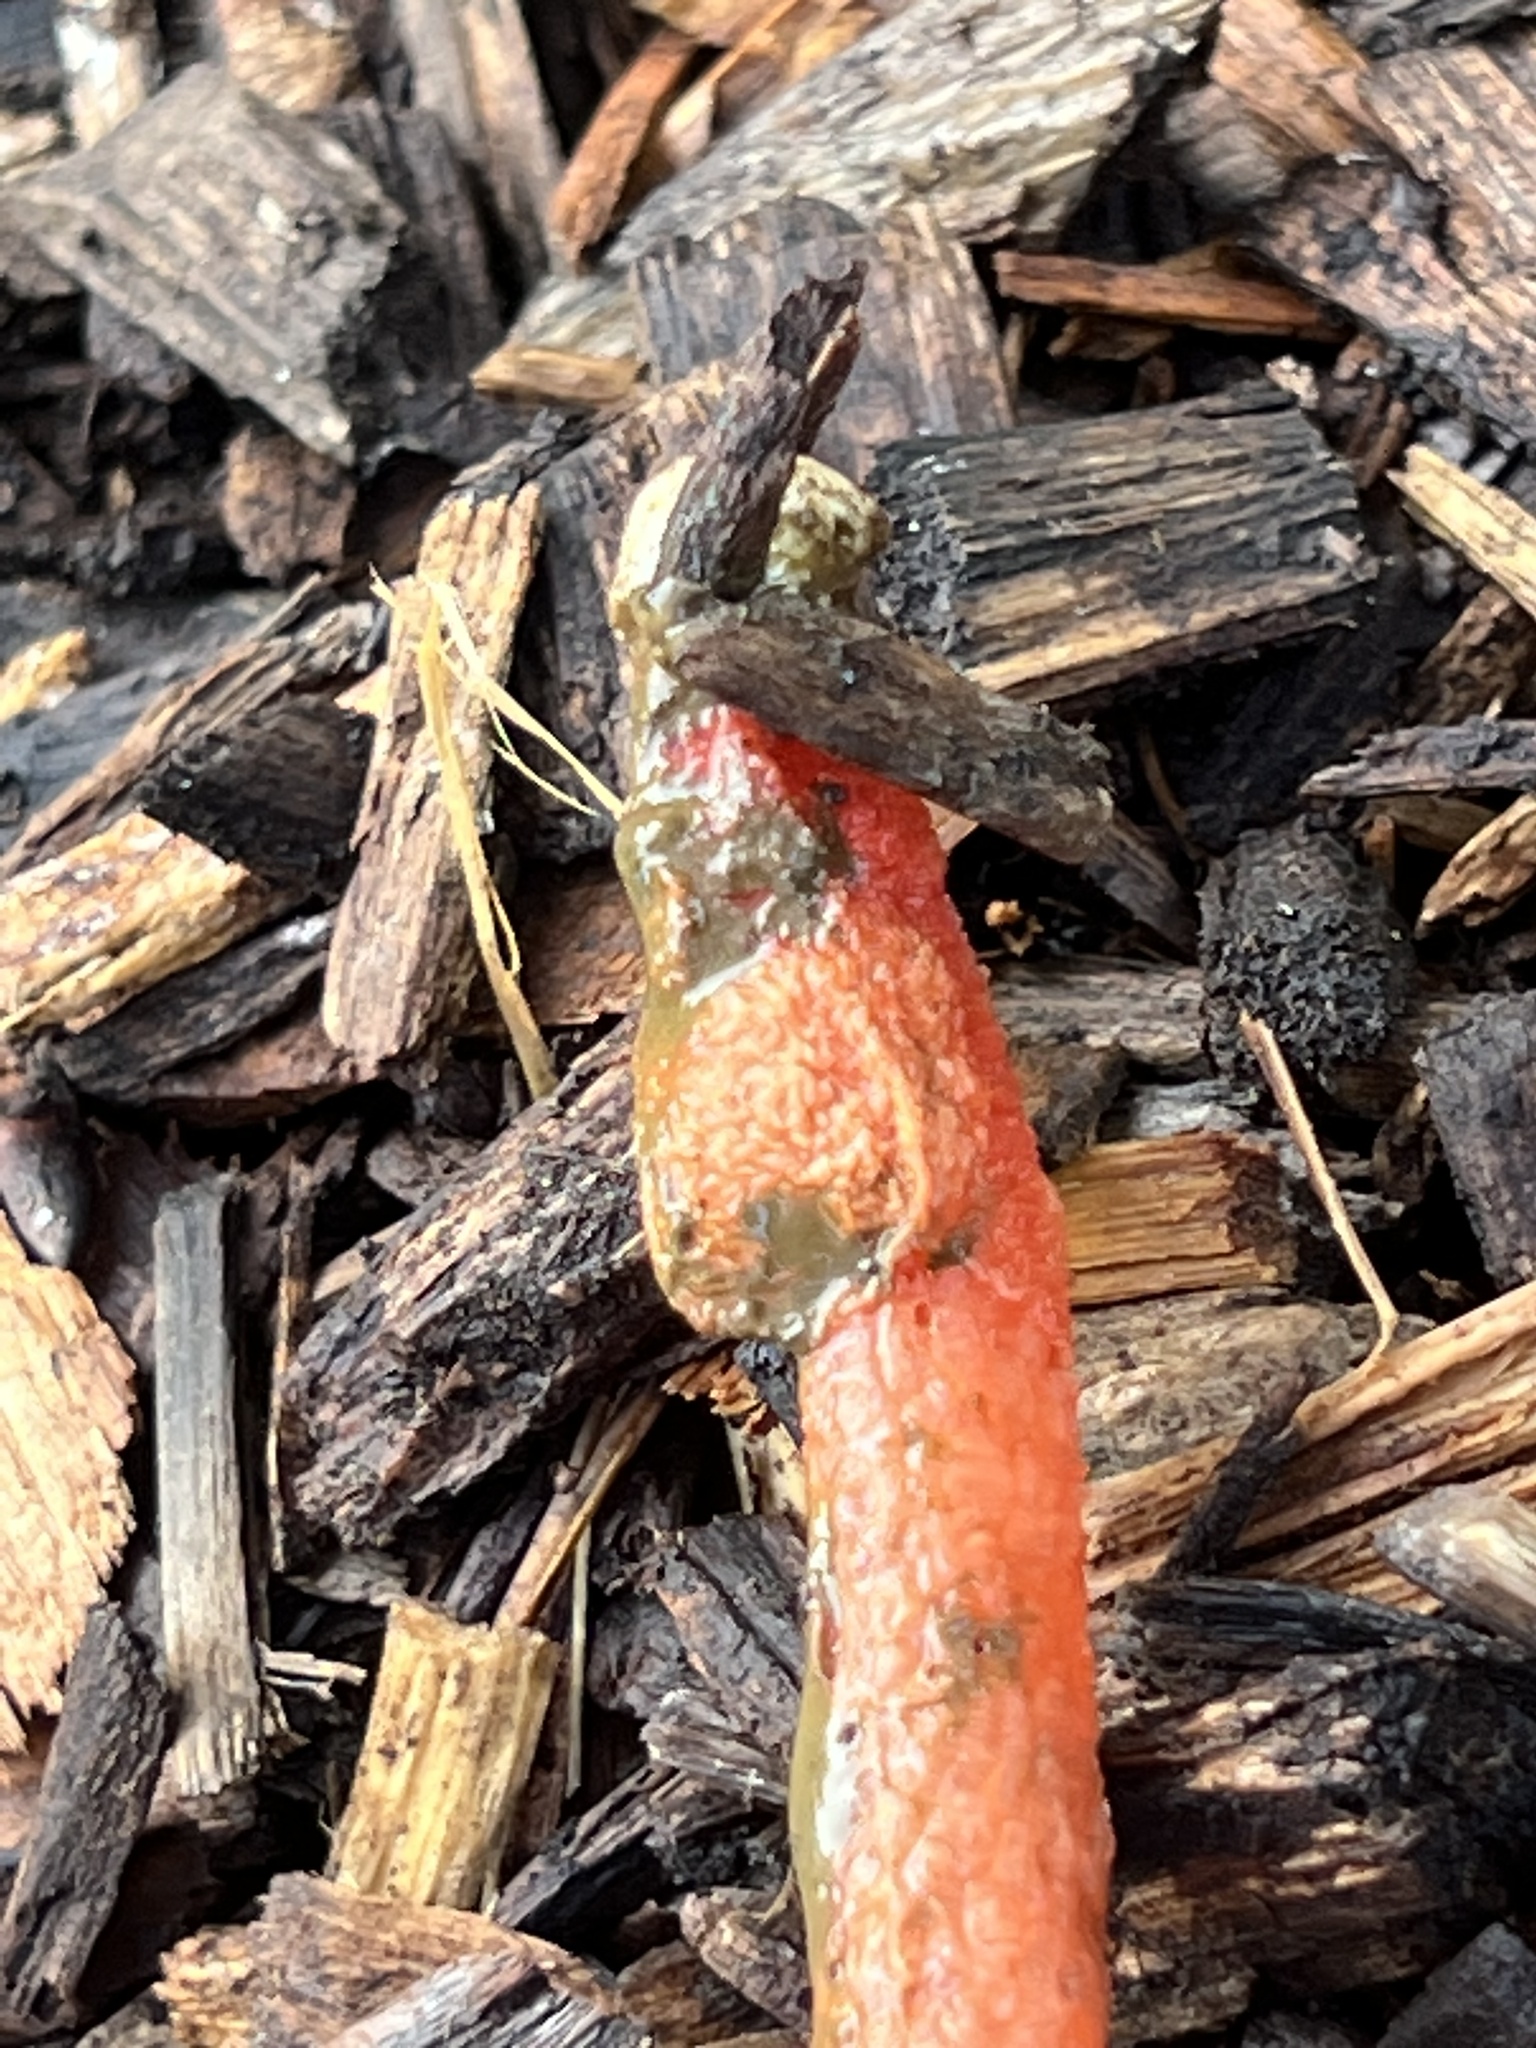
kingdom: Fungi
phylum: Basidiomycota
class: Agaricomycetes
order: Phallales
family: Phallaceae
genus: Phallus
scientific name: Phallus rugulosus
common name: Wrinkly stinkhorn
